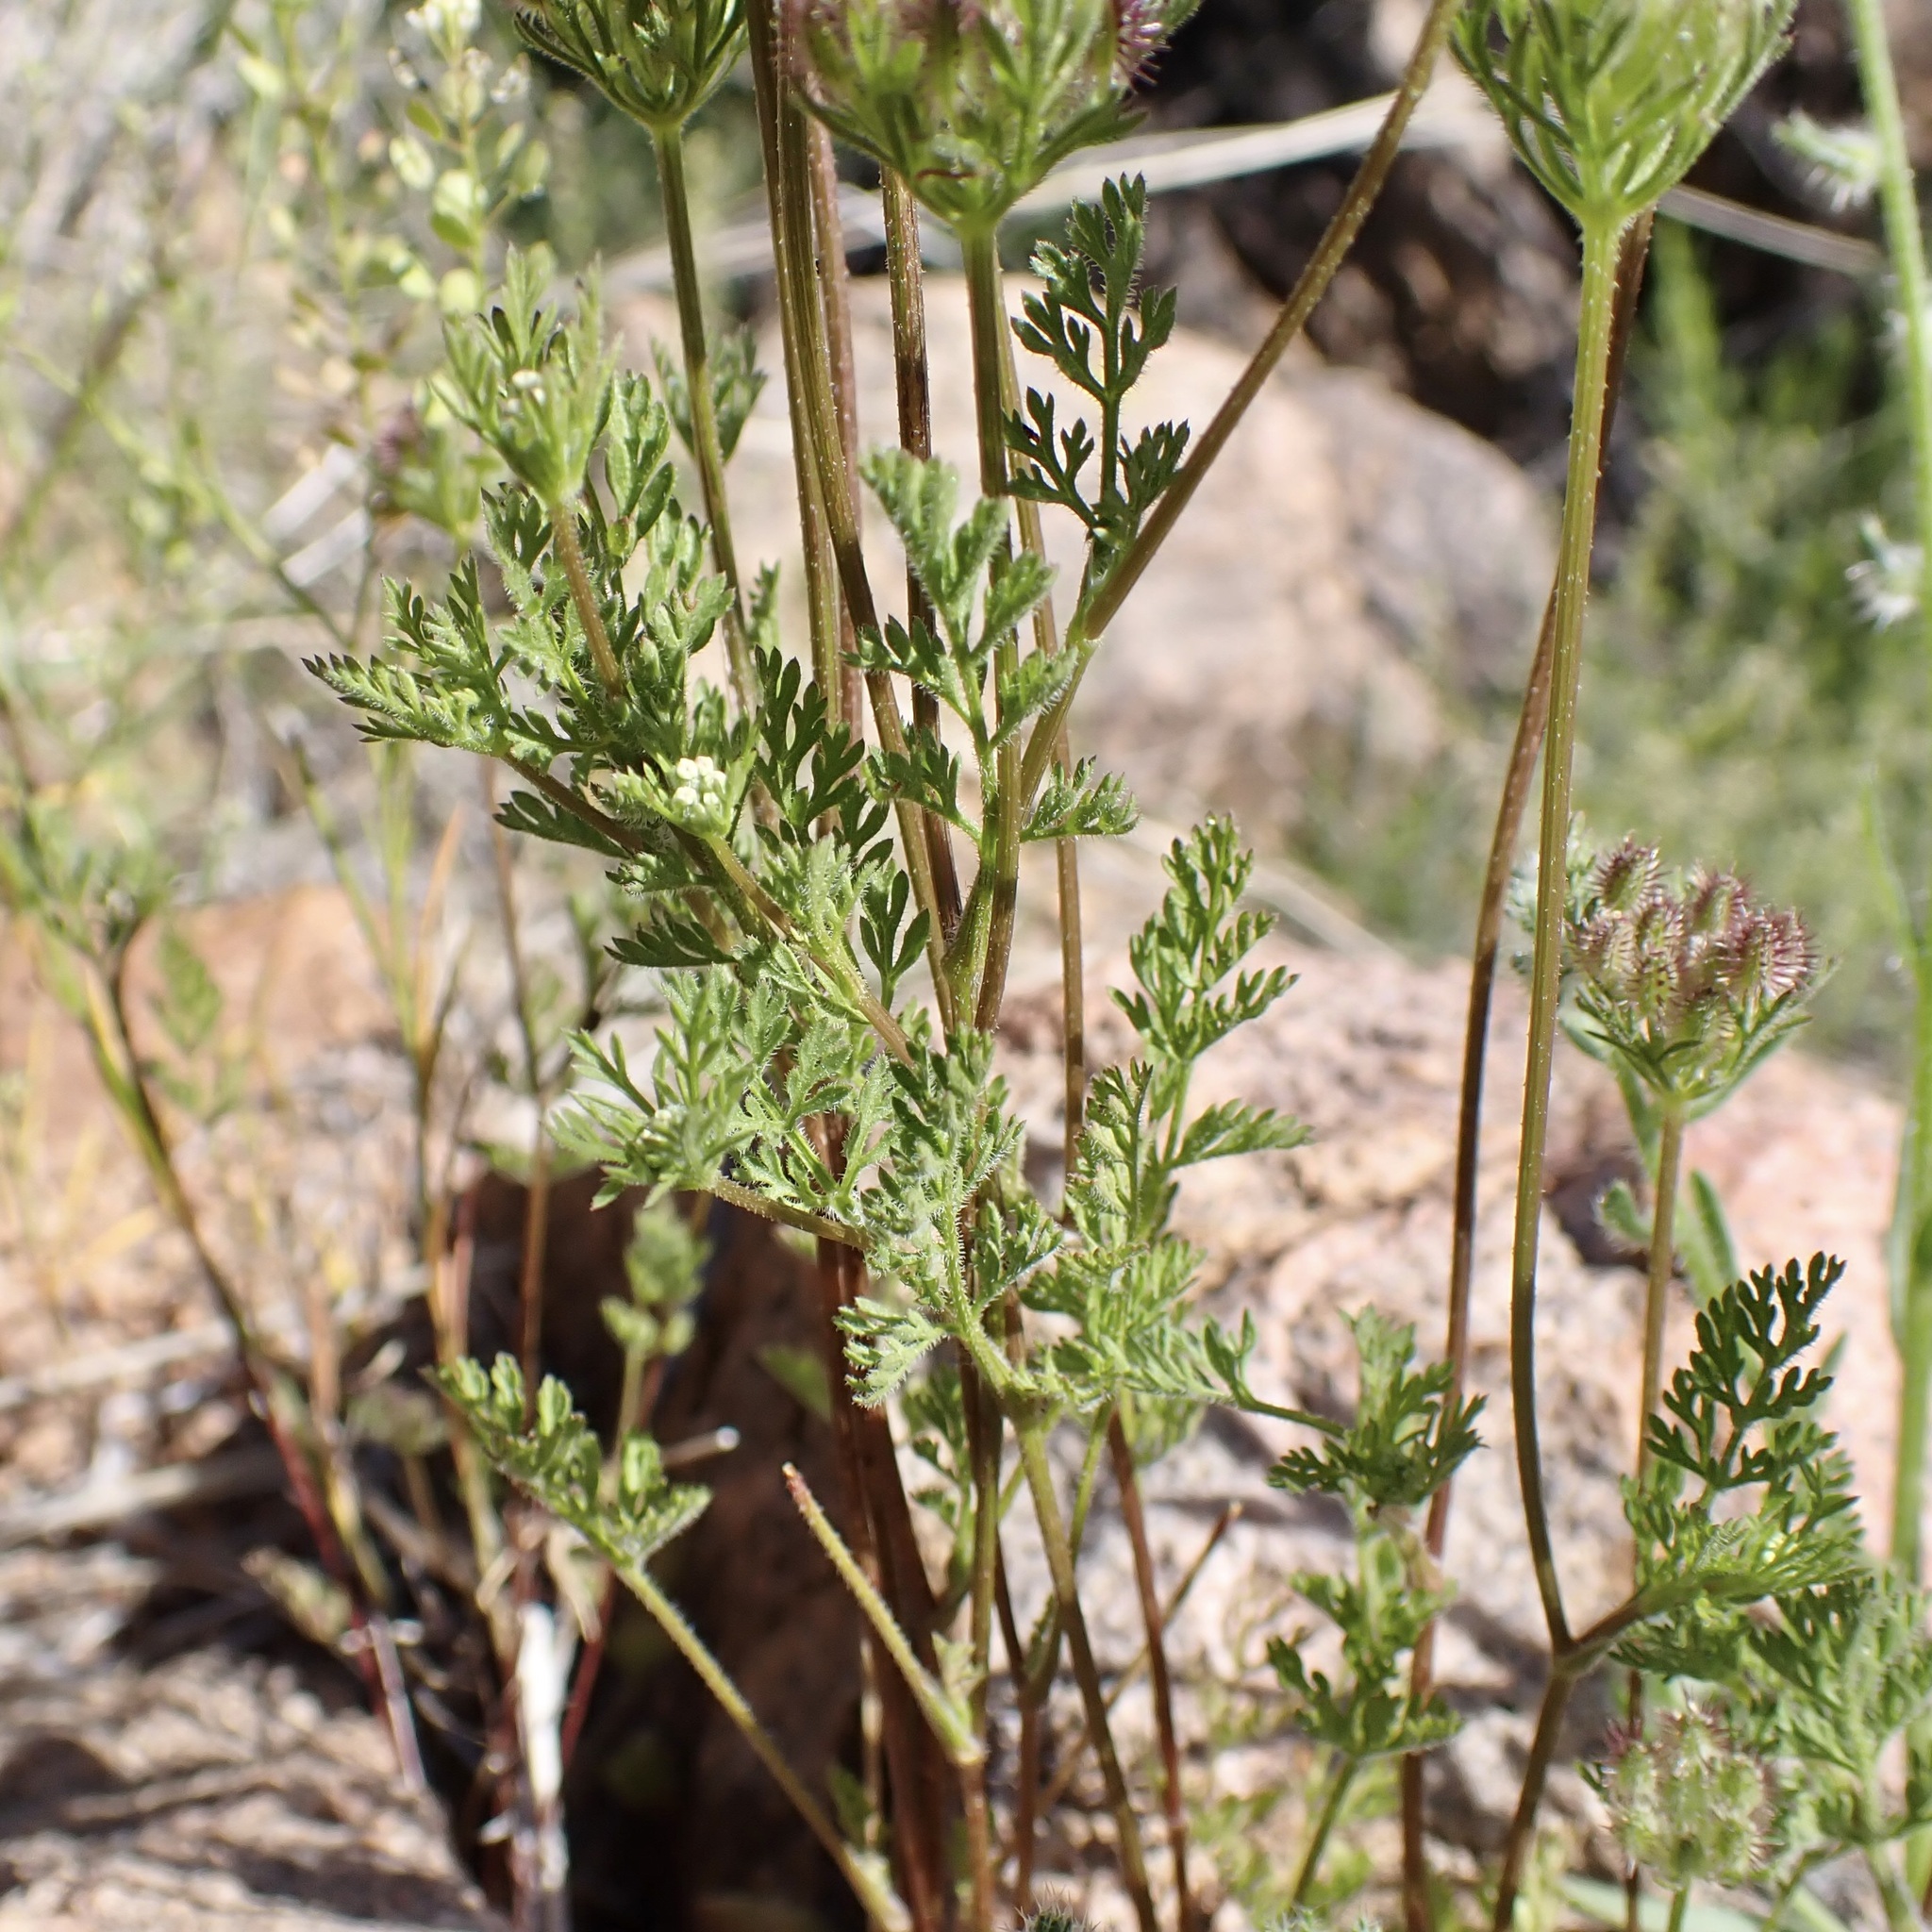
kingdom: Plantae
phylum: Tracheophyta
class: Magnoliopsida
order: Apiales
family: Apiaceae
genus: Daucus
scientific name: Daucus pusillus
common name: Southwest wild carrot
